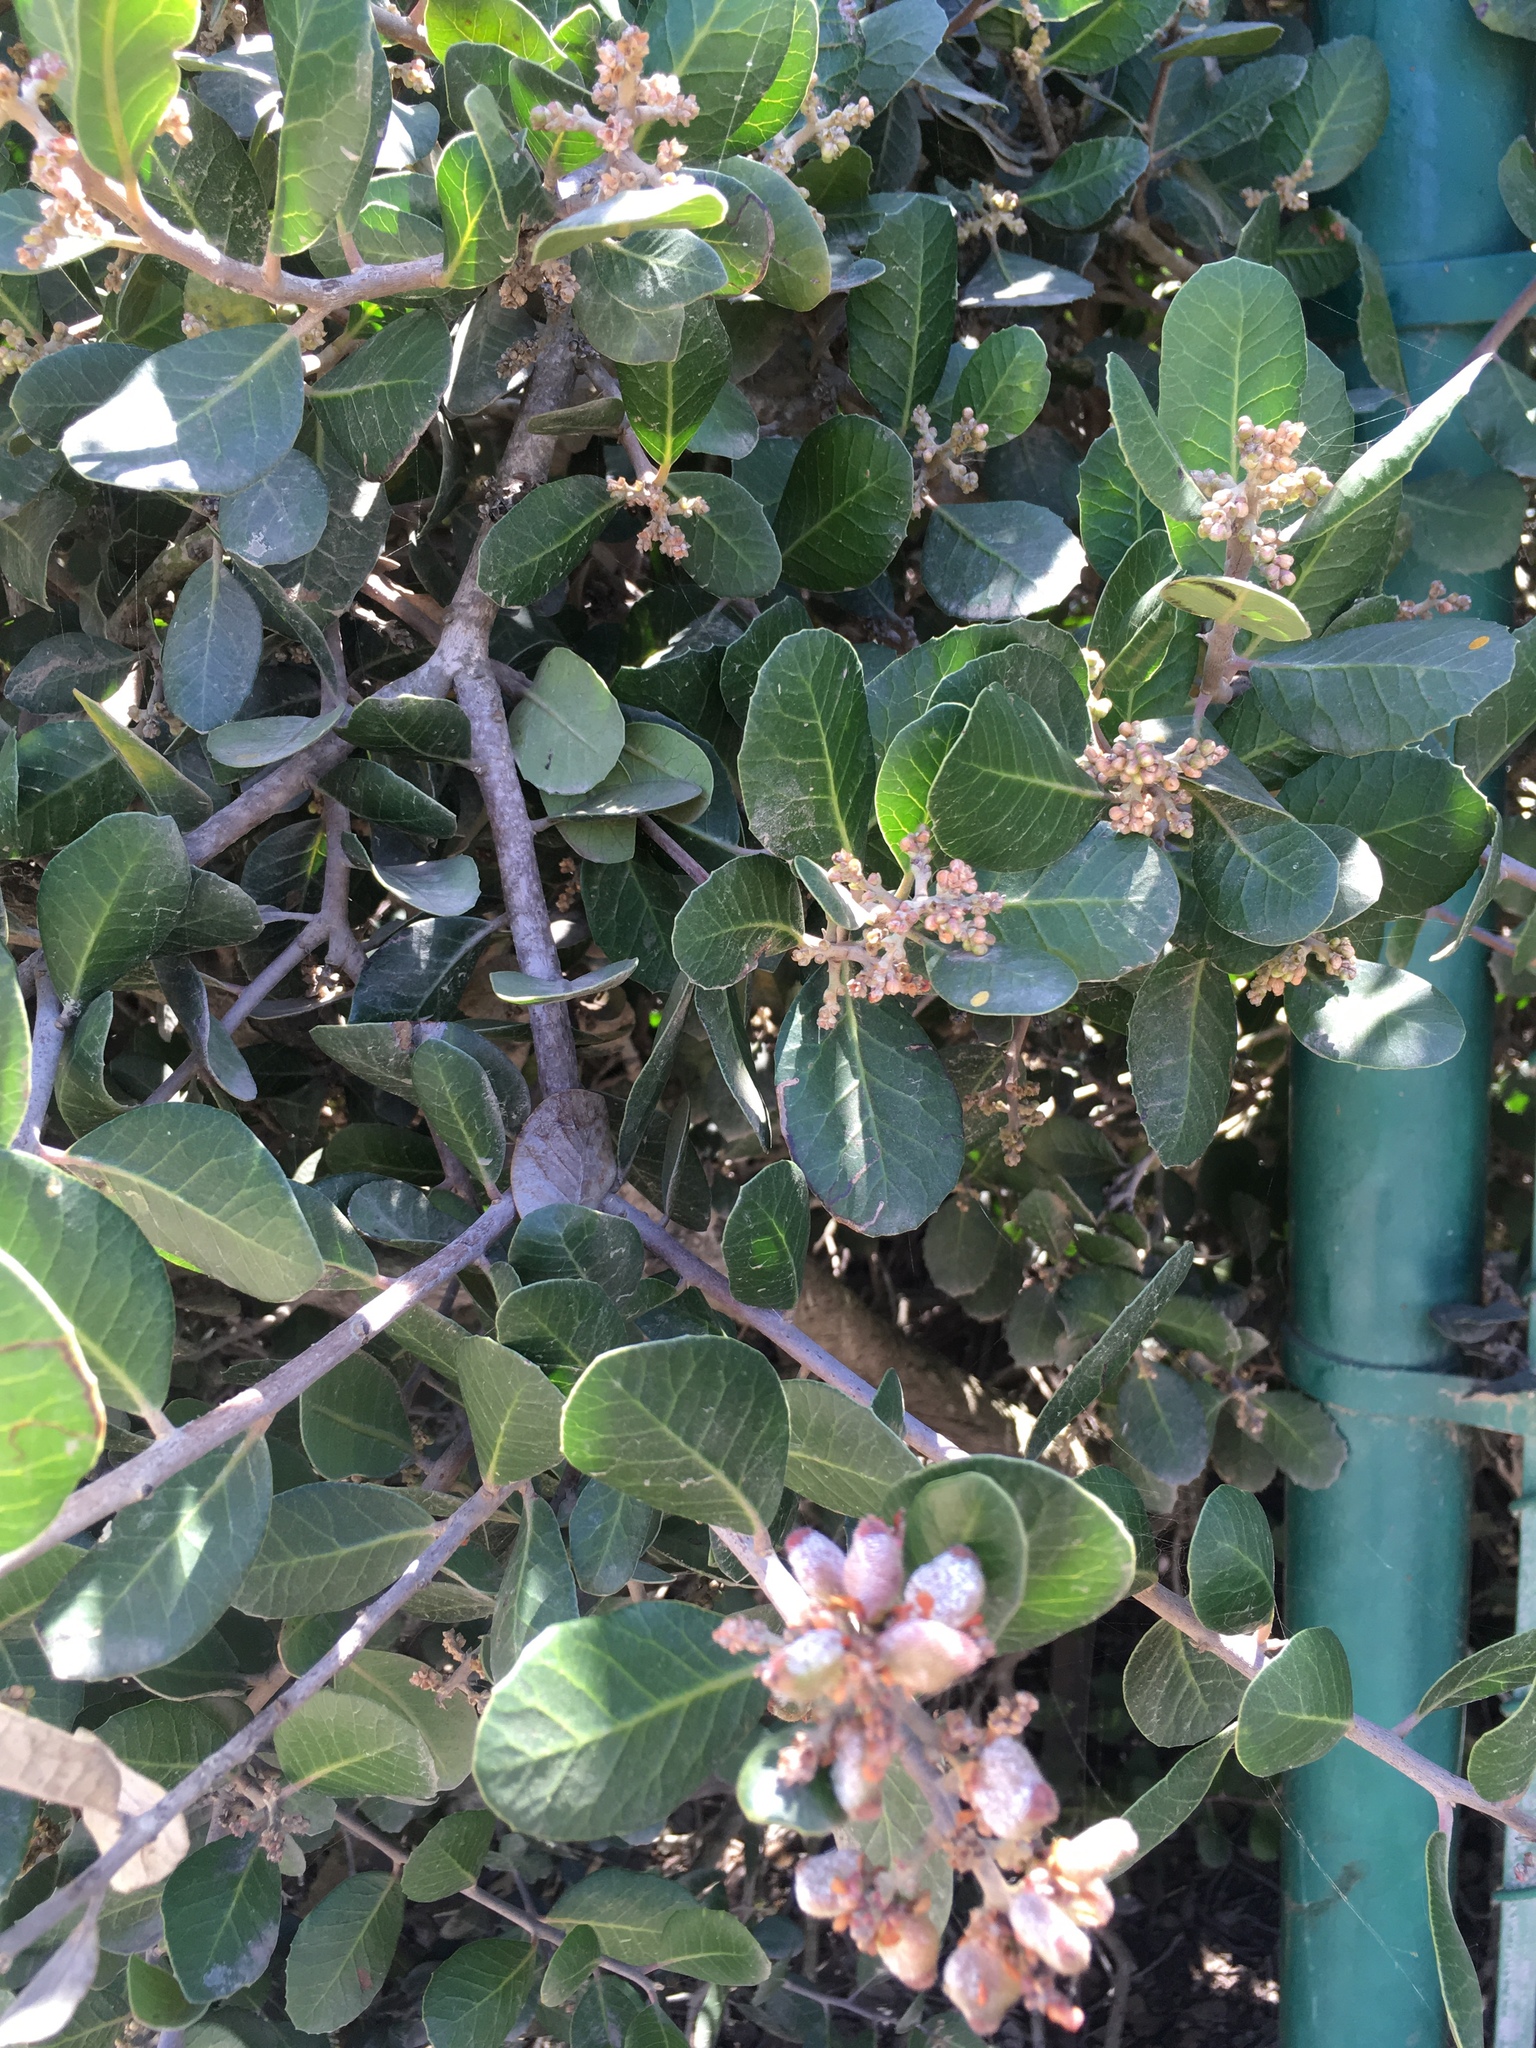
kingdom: Plantae
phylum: Tracheophyta
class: Magnoliopsida
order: Sapindales
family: Anacardiaceae
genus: Rhus
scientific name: Rhus integrifolia
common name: Lemonade sumac
